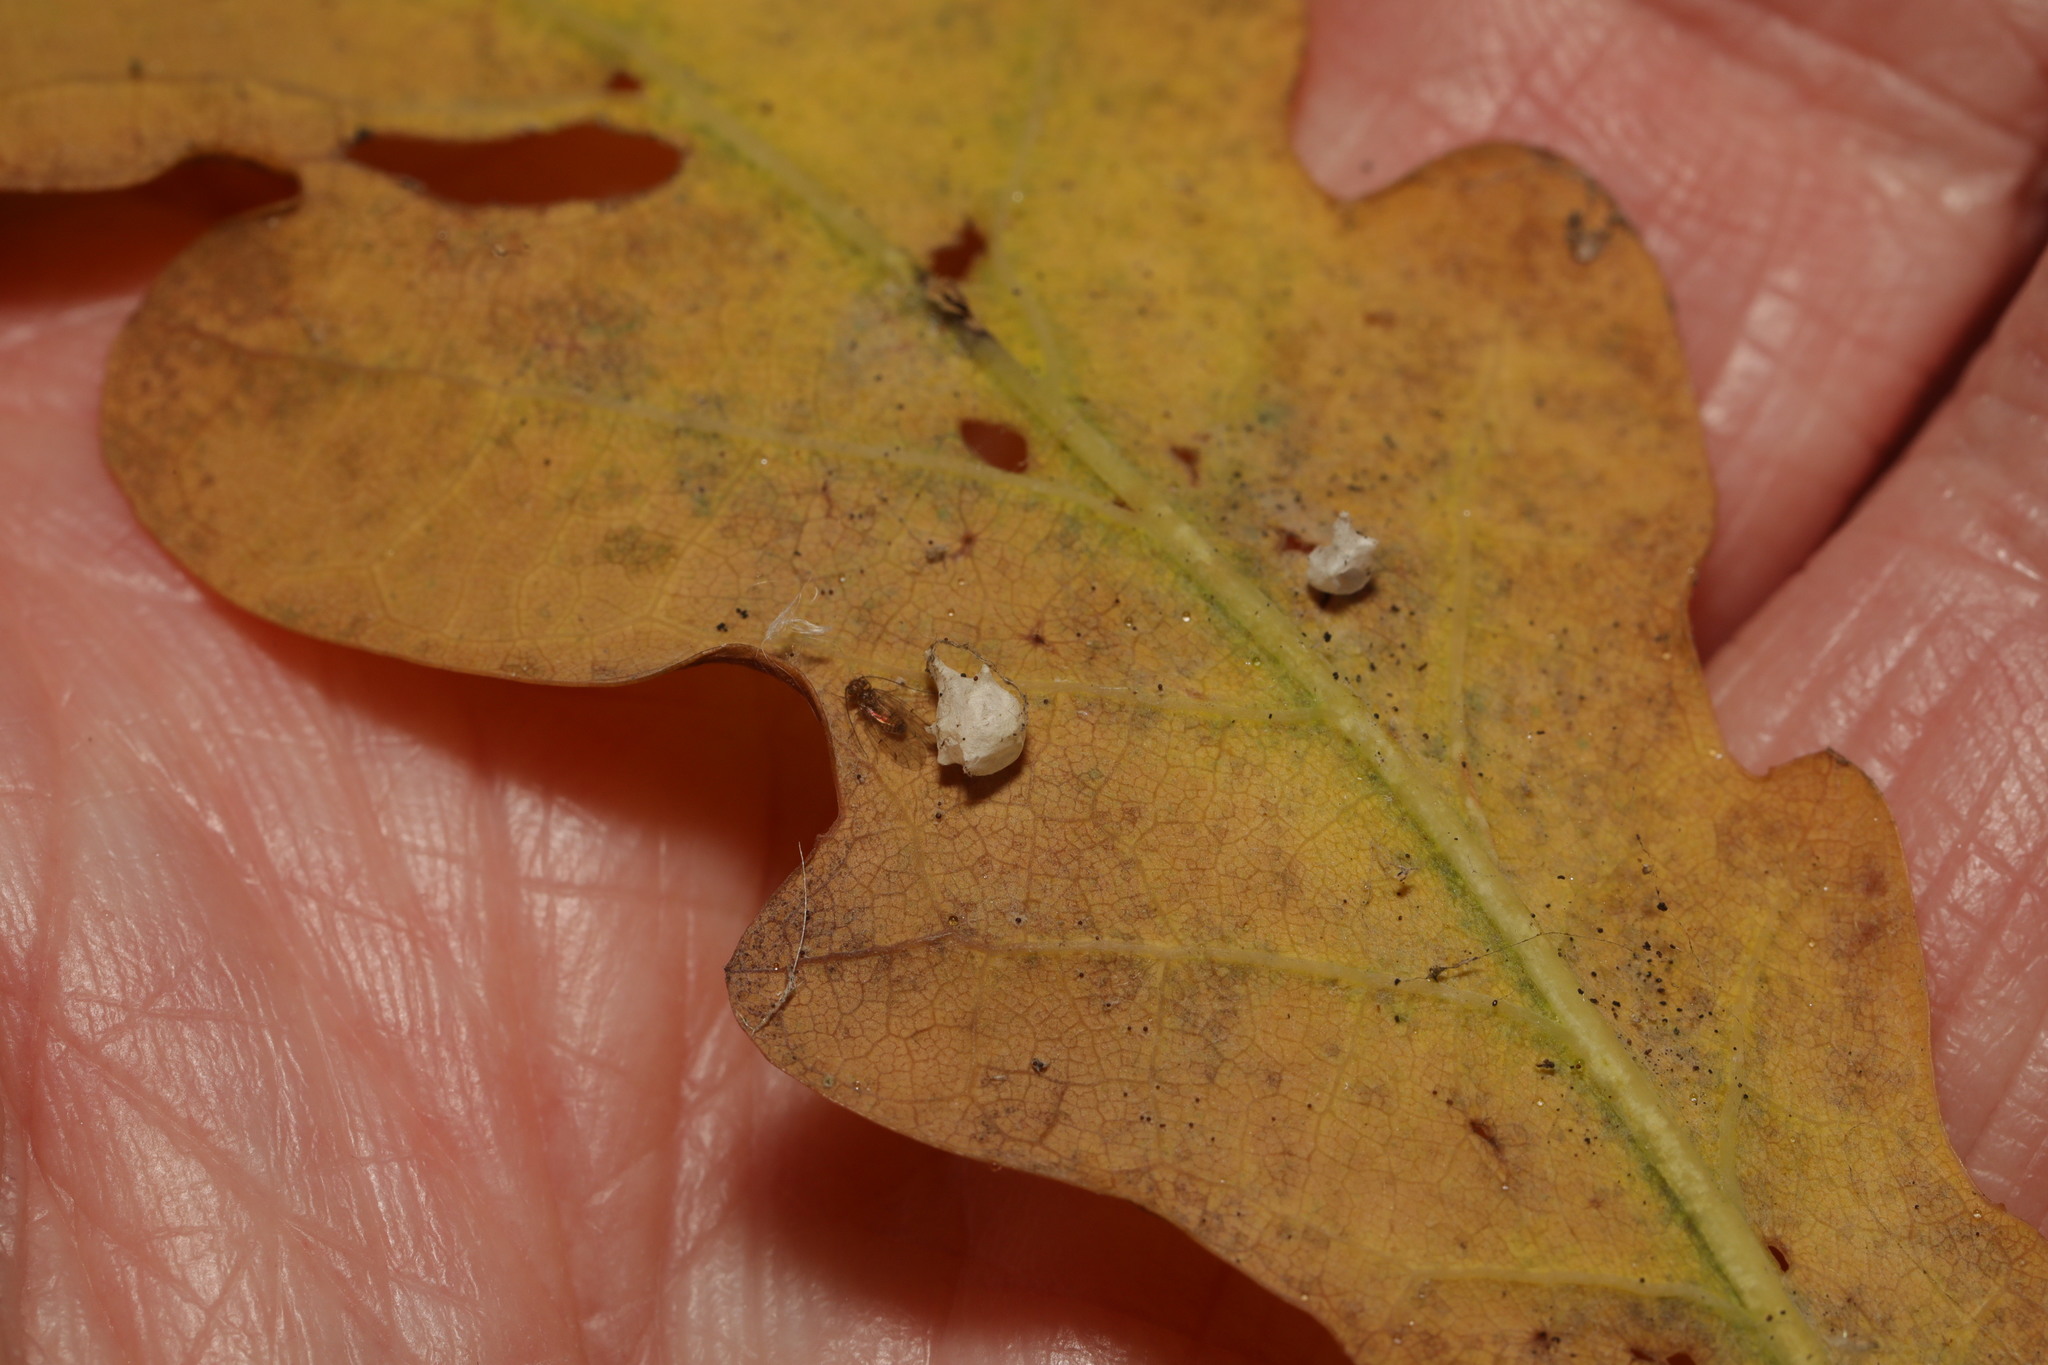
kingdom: Animalia
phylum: Arthropoda
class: Arachnida
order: Araneae
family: Theridiidae
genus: Paidiscura
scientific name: Paidiscura pallens
